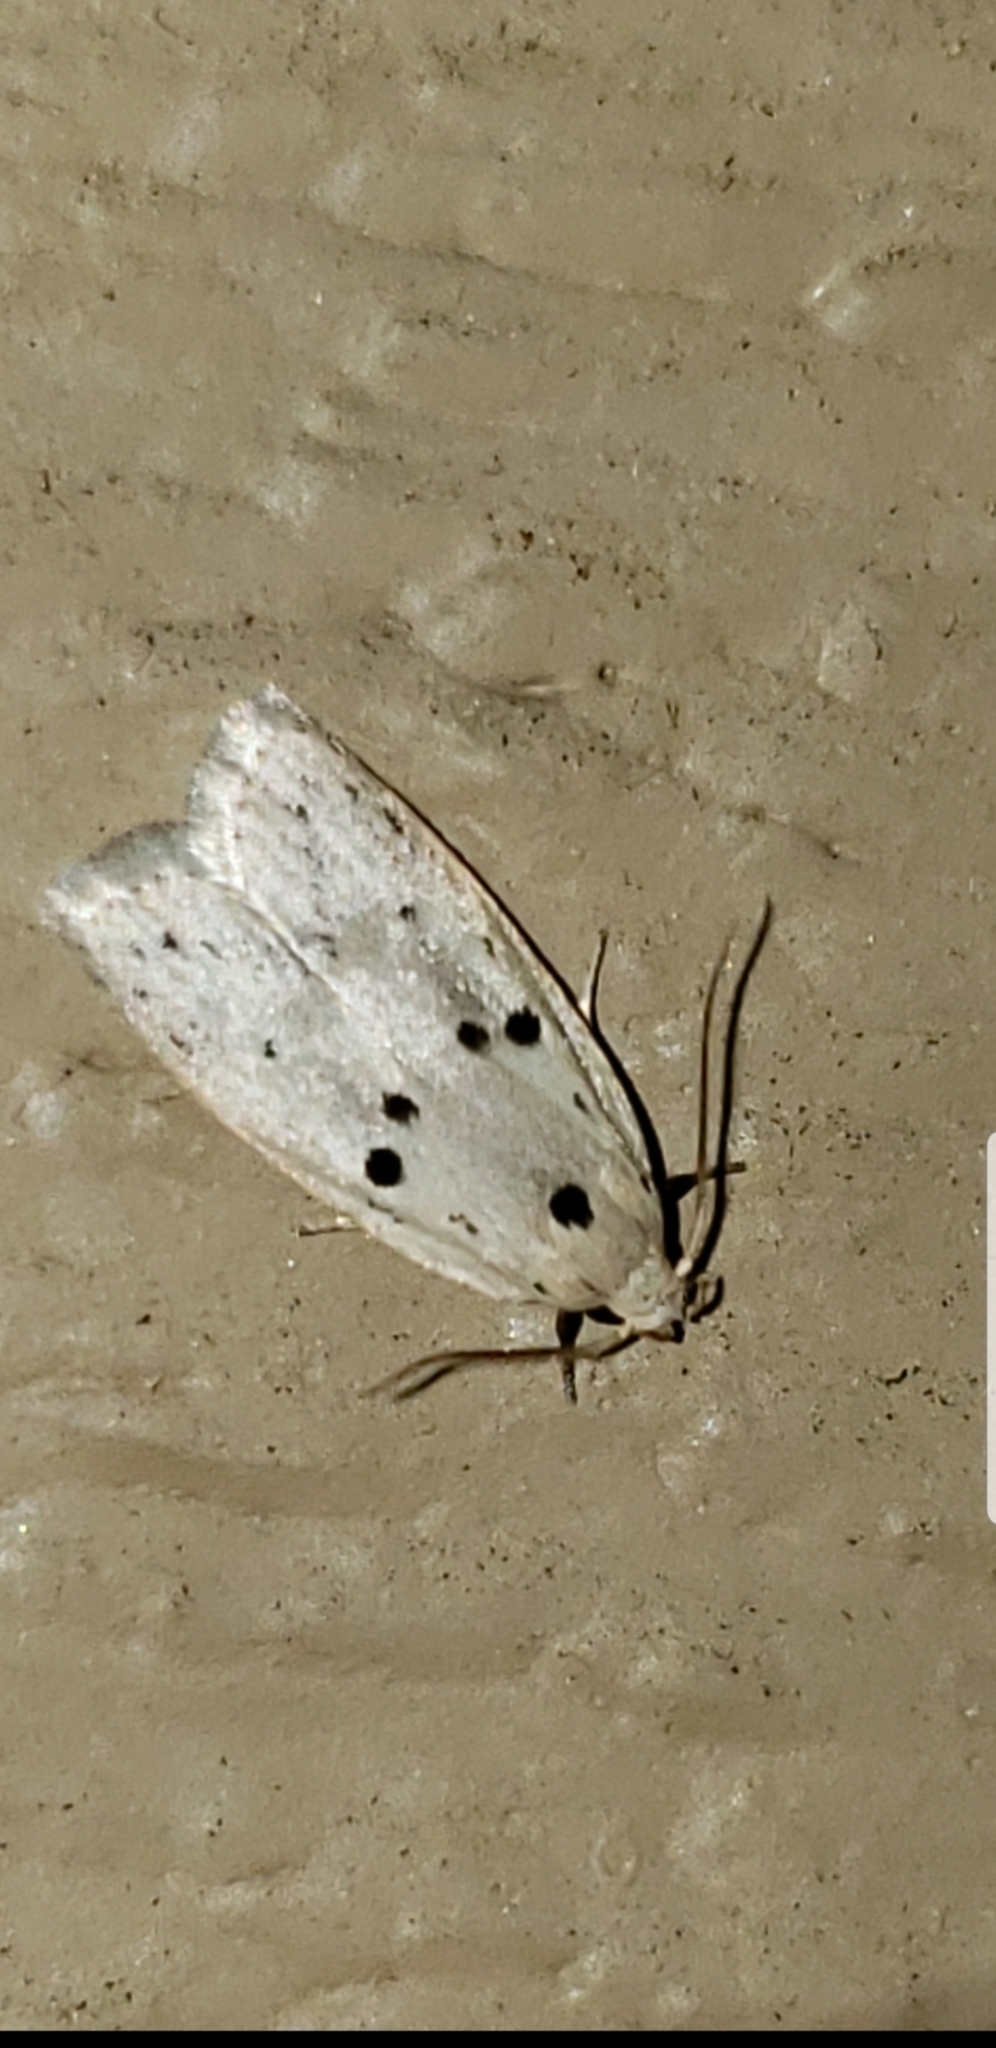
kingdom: Animalia
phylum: Arthropoda
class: Insecta
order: Lepidoptera
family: Peleopodidae
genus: Scythropiodes
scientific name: Scythropiodes issikii
